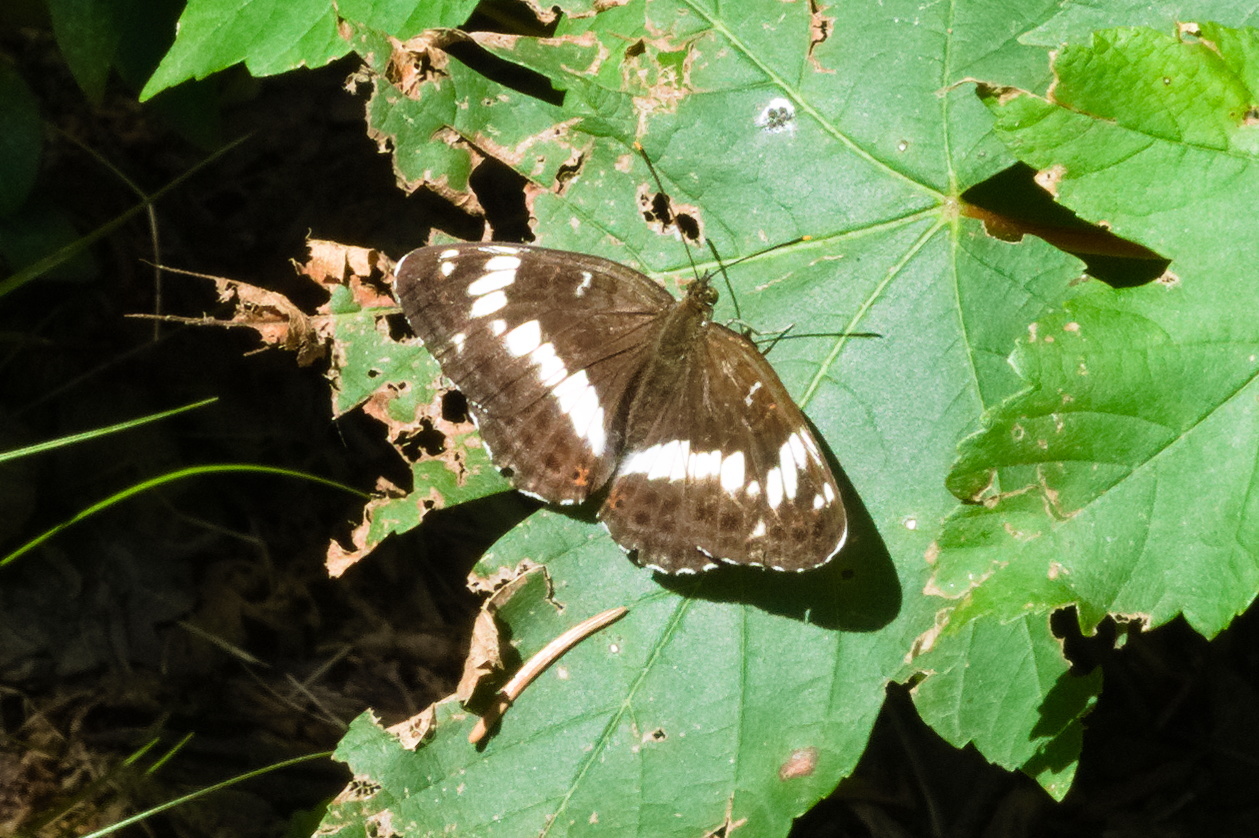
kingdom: Animalia
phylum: Arthropoda
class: Insecta
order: Lepidoptera
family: Nymphalidae
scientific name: Nymphalidae
